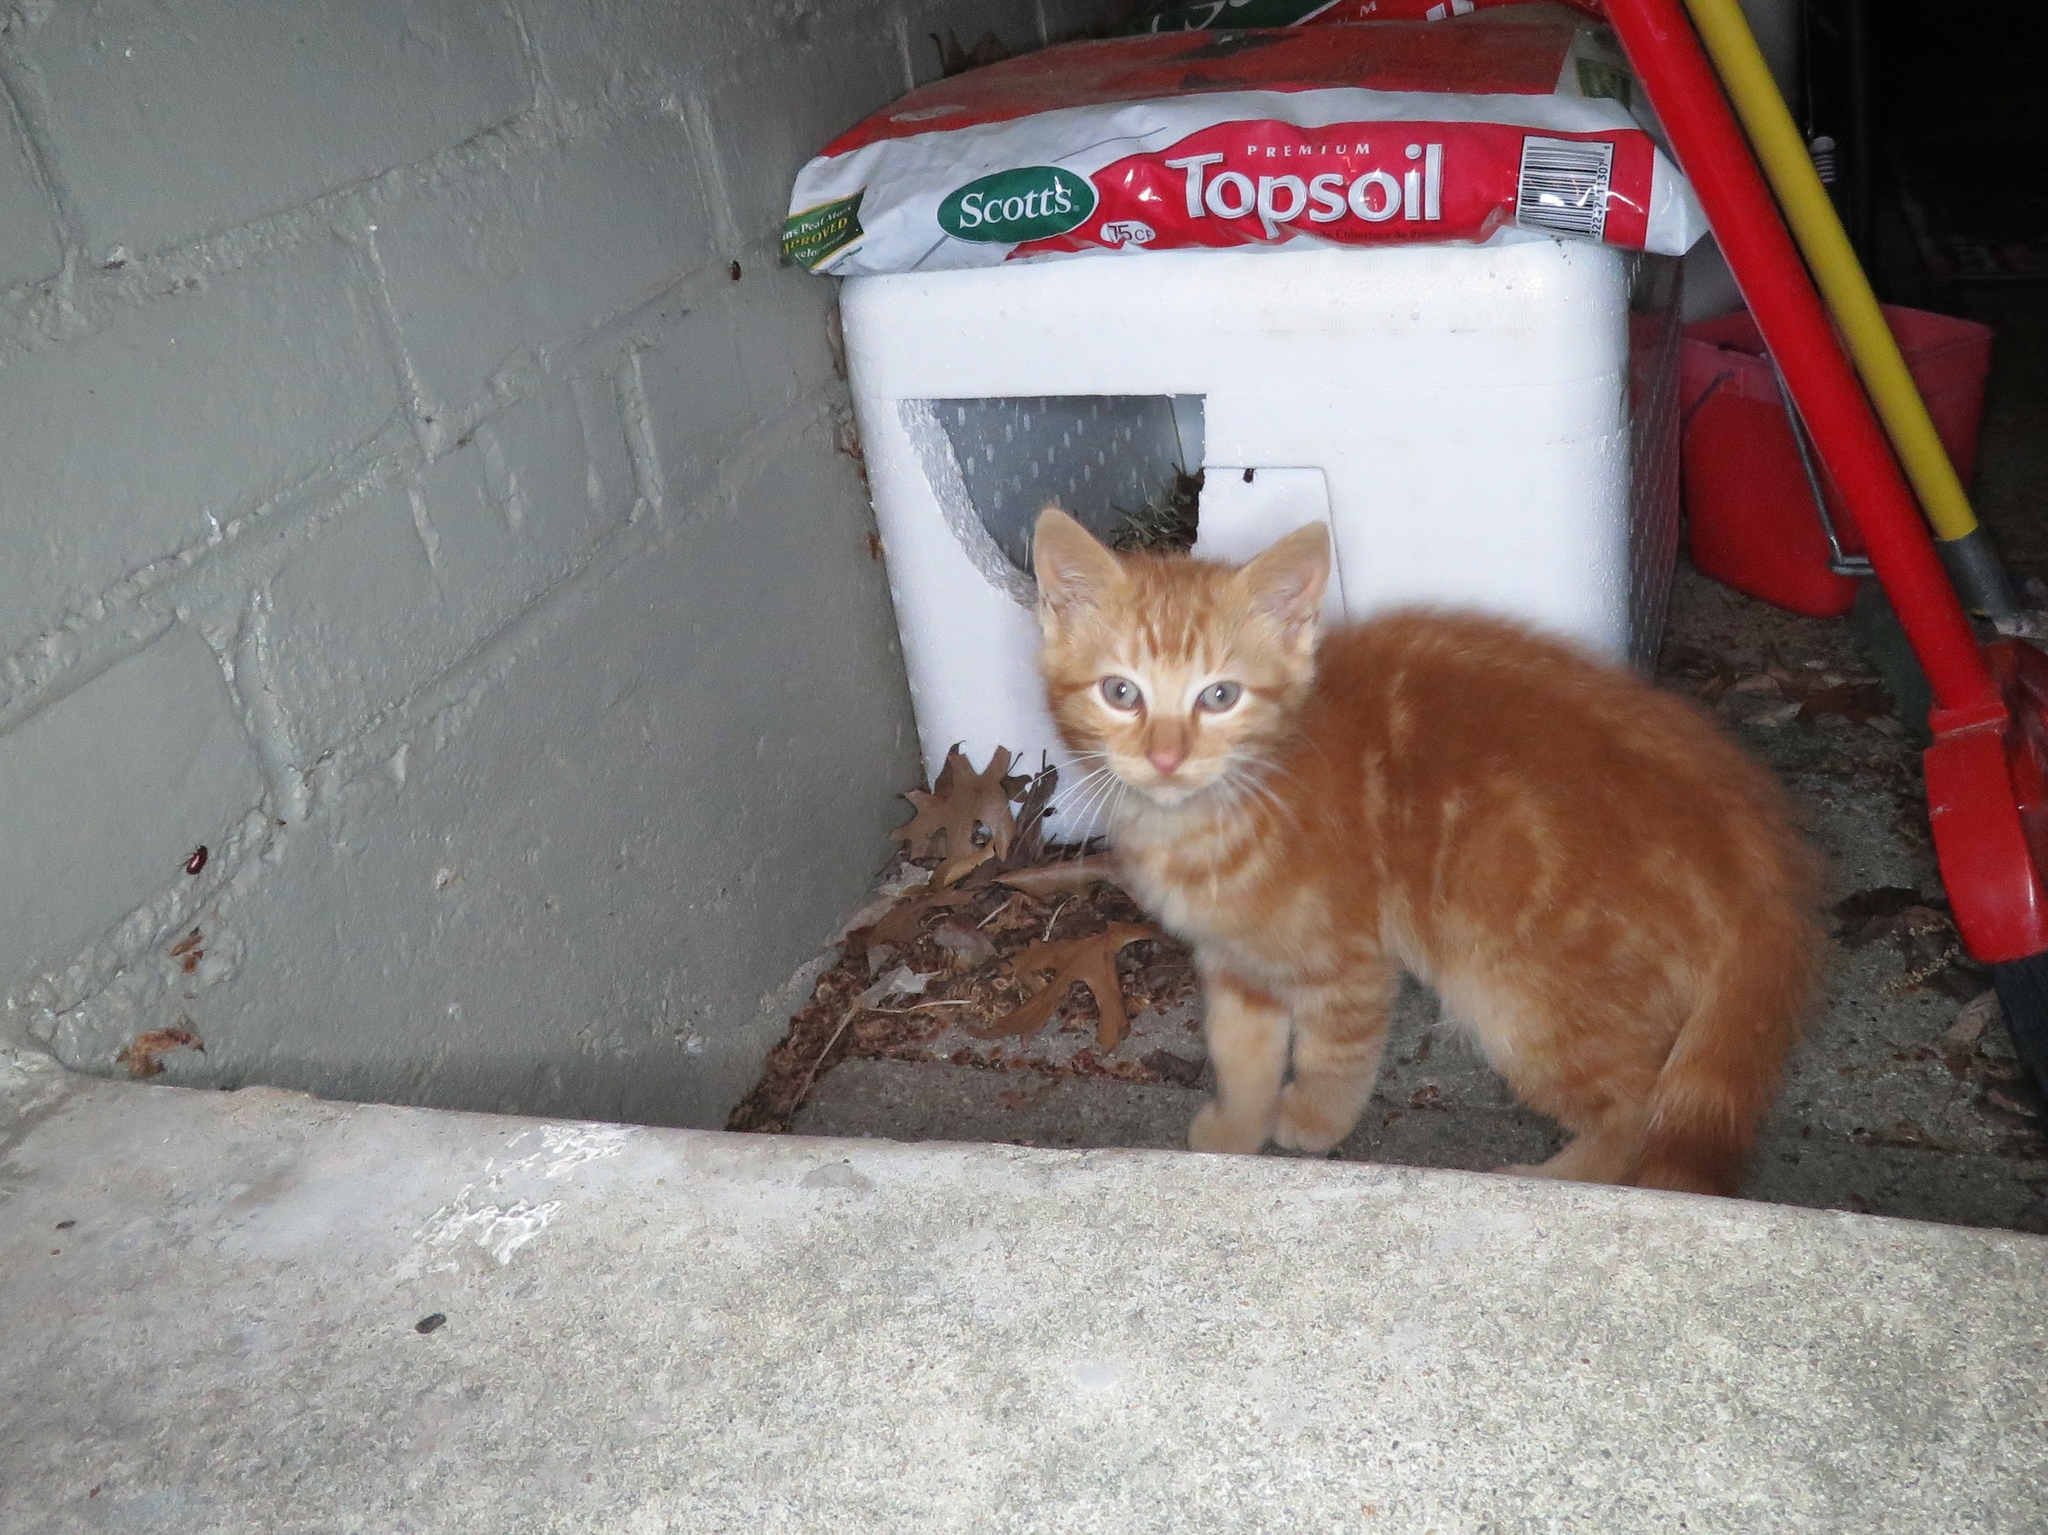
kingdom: Animalia
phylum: Chordata
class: Mammalia
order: Carnivora
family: Felidae
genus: Felis
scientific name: Felis catus
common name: Domestic cat
